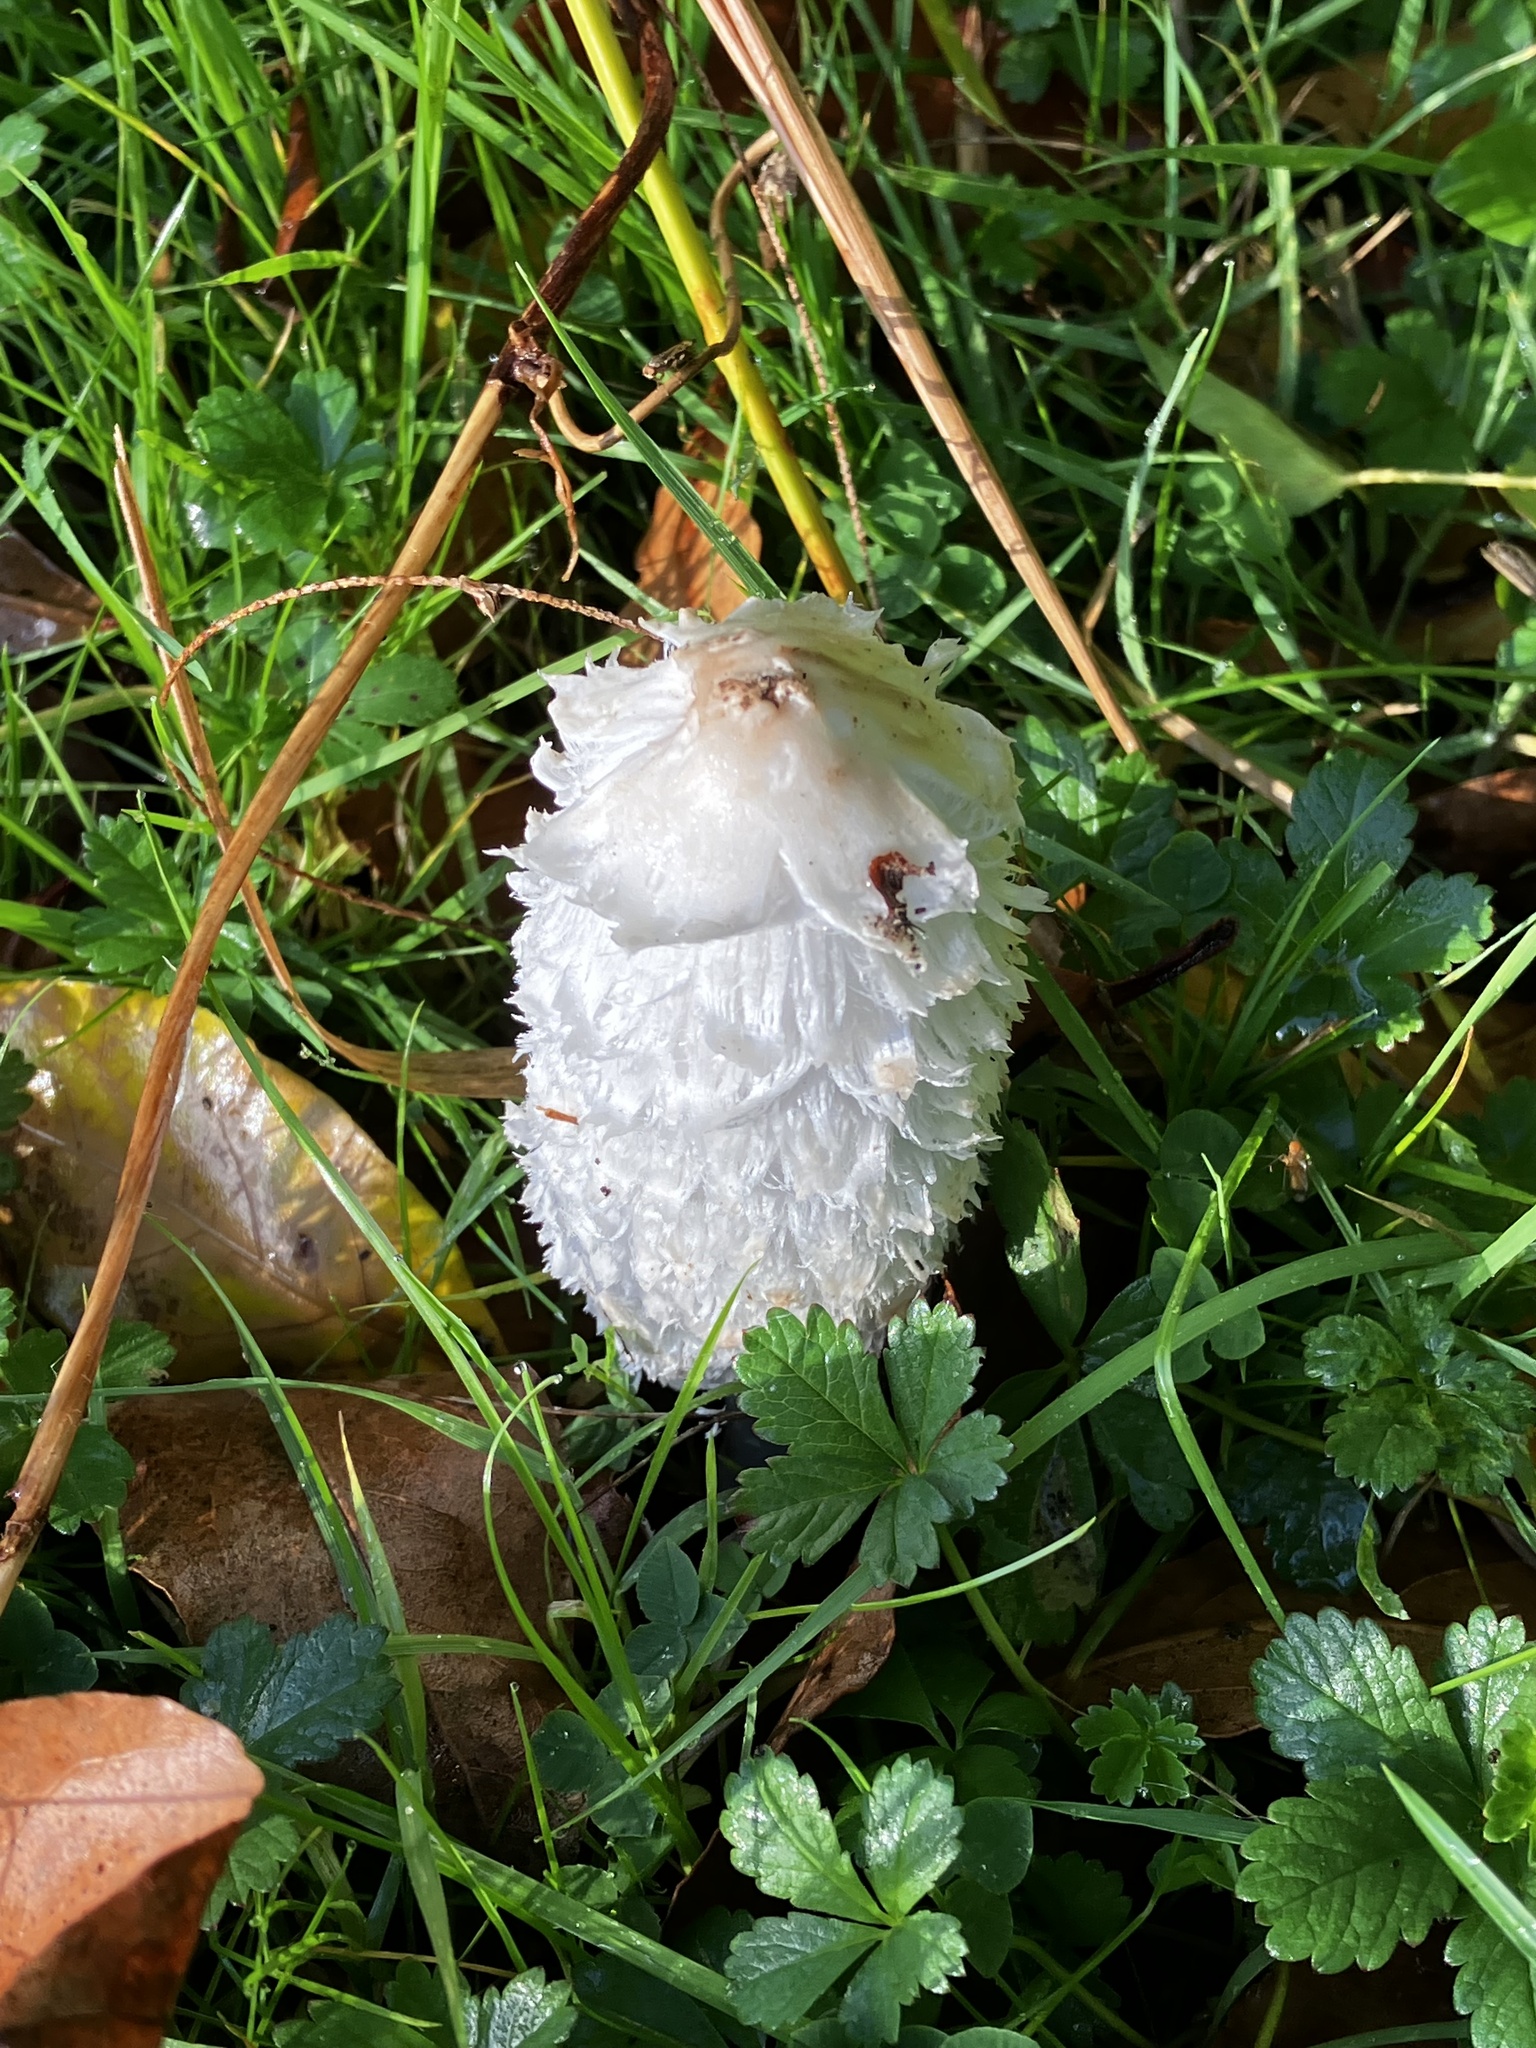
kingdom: Fungi
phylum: Basidiomycota
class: Agaricomycetes
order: Agaricales
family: Agaricaceae
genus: Coprinus
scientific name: Coprinus comatus
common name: Lawyer's wig
